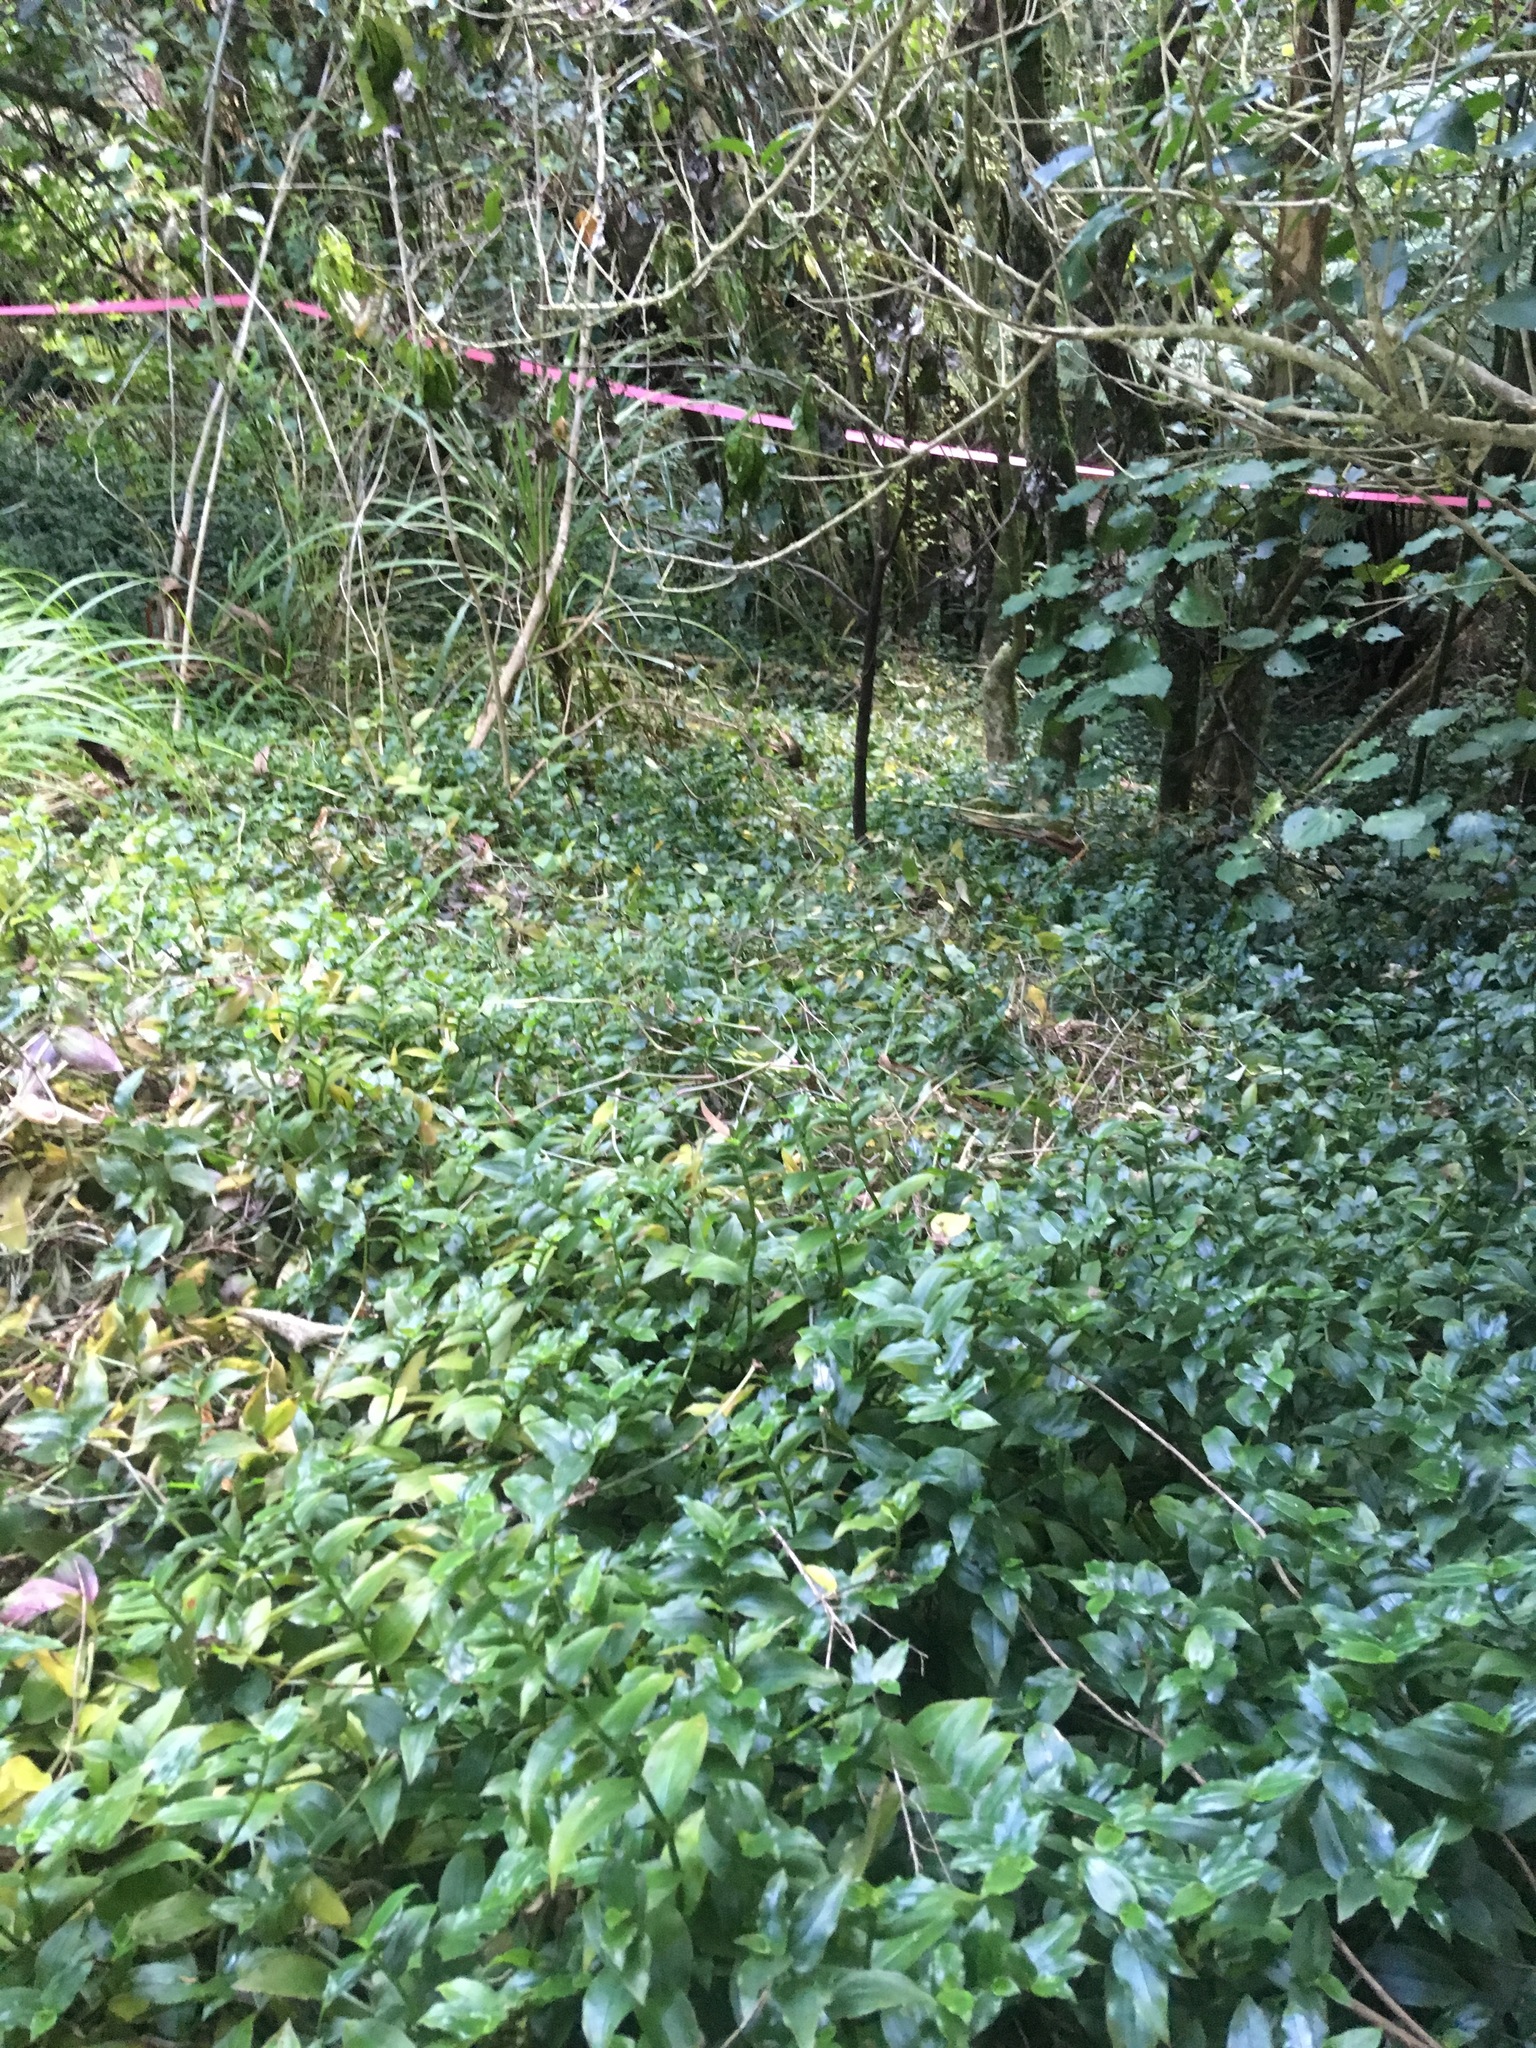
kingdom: Plantae
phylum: Tracheophyta
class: Liliopsida
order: Commelinales
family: Commelinaceae
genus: Tradescantia
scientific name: Tradescantia fluminensis
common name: Wandering-jew
